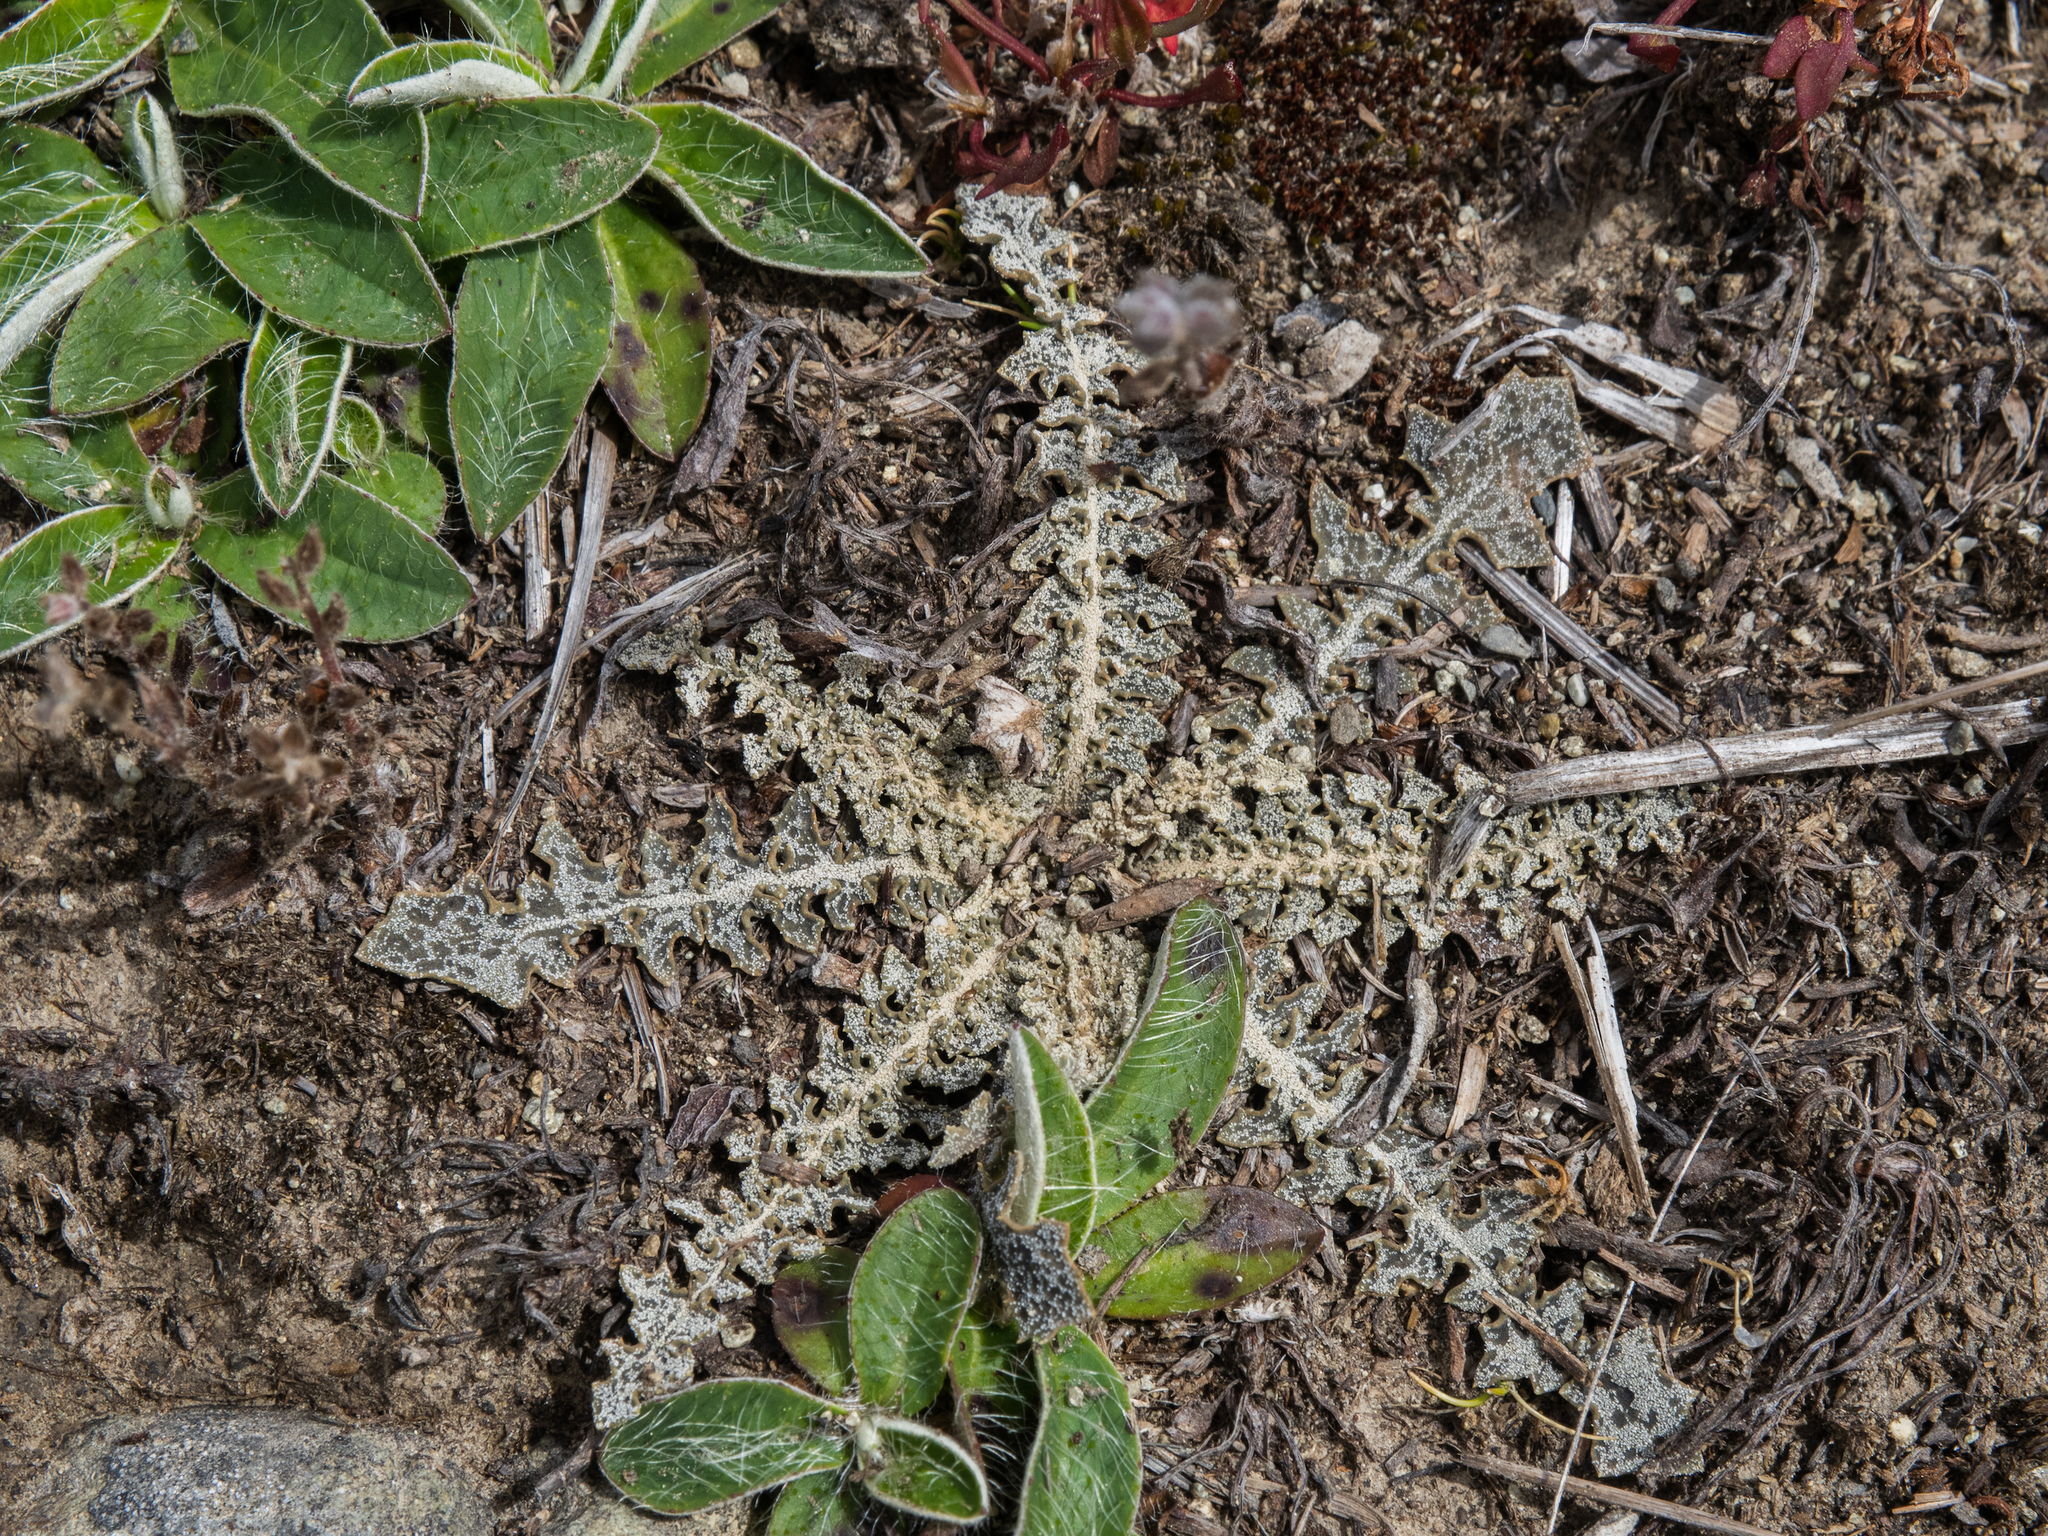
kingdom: Plantae
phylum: Tracheophyta
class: Magnoliopsida
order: Asterales
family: Asteraceae
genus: Sonchus
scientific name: Sonchus novae-zelandiae
